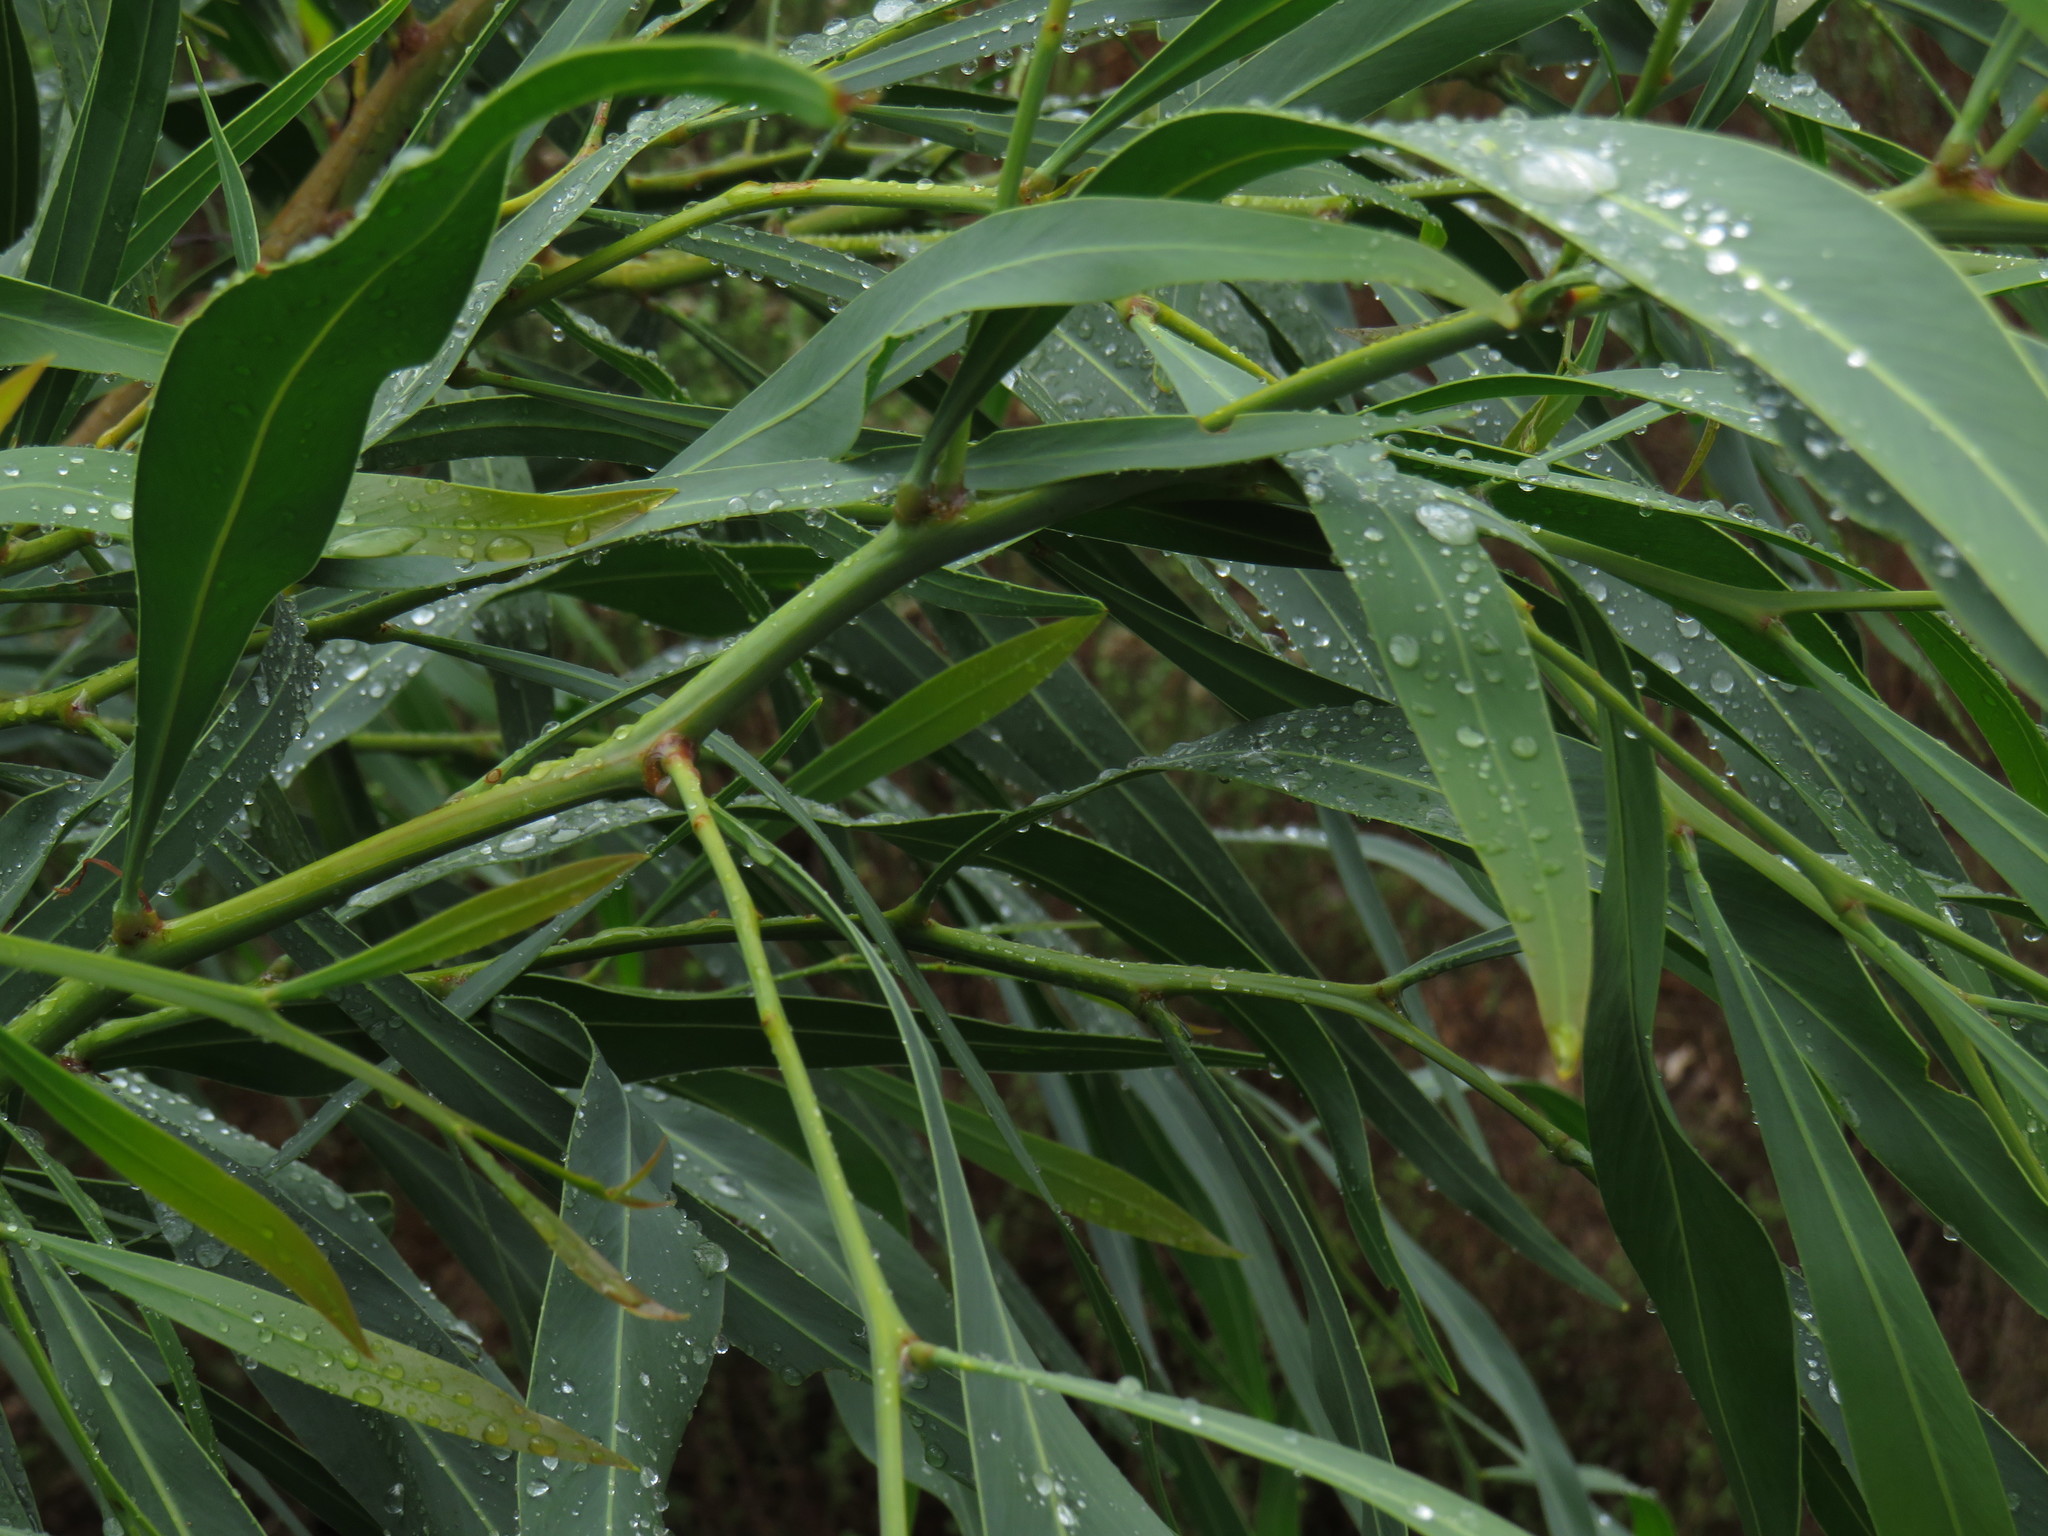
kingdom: Plantae
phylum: Tracheophyta
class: Magnoliopsida
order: Fabales
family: Fabaceae
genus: Acacia
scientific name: Acacia saligna
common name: Orange wattle
